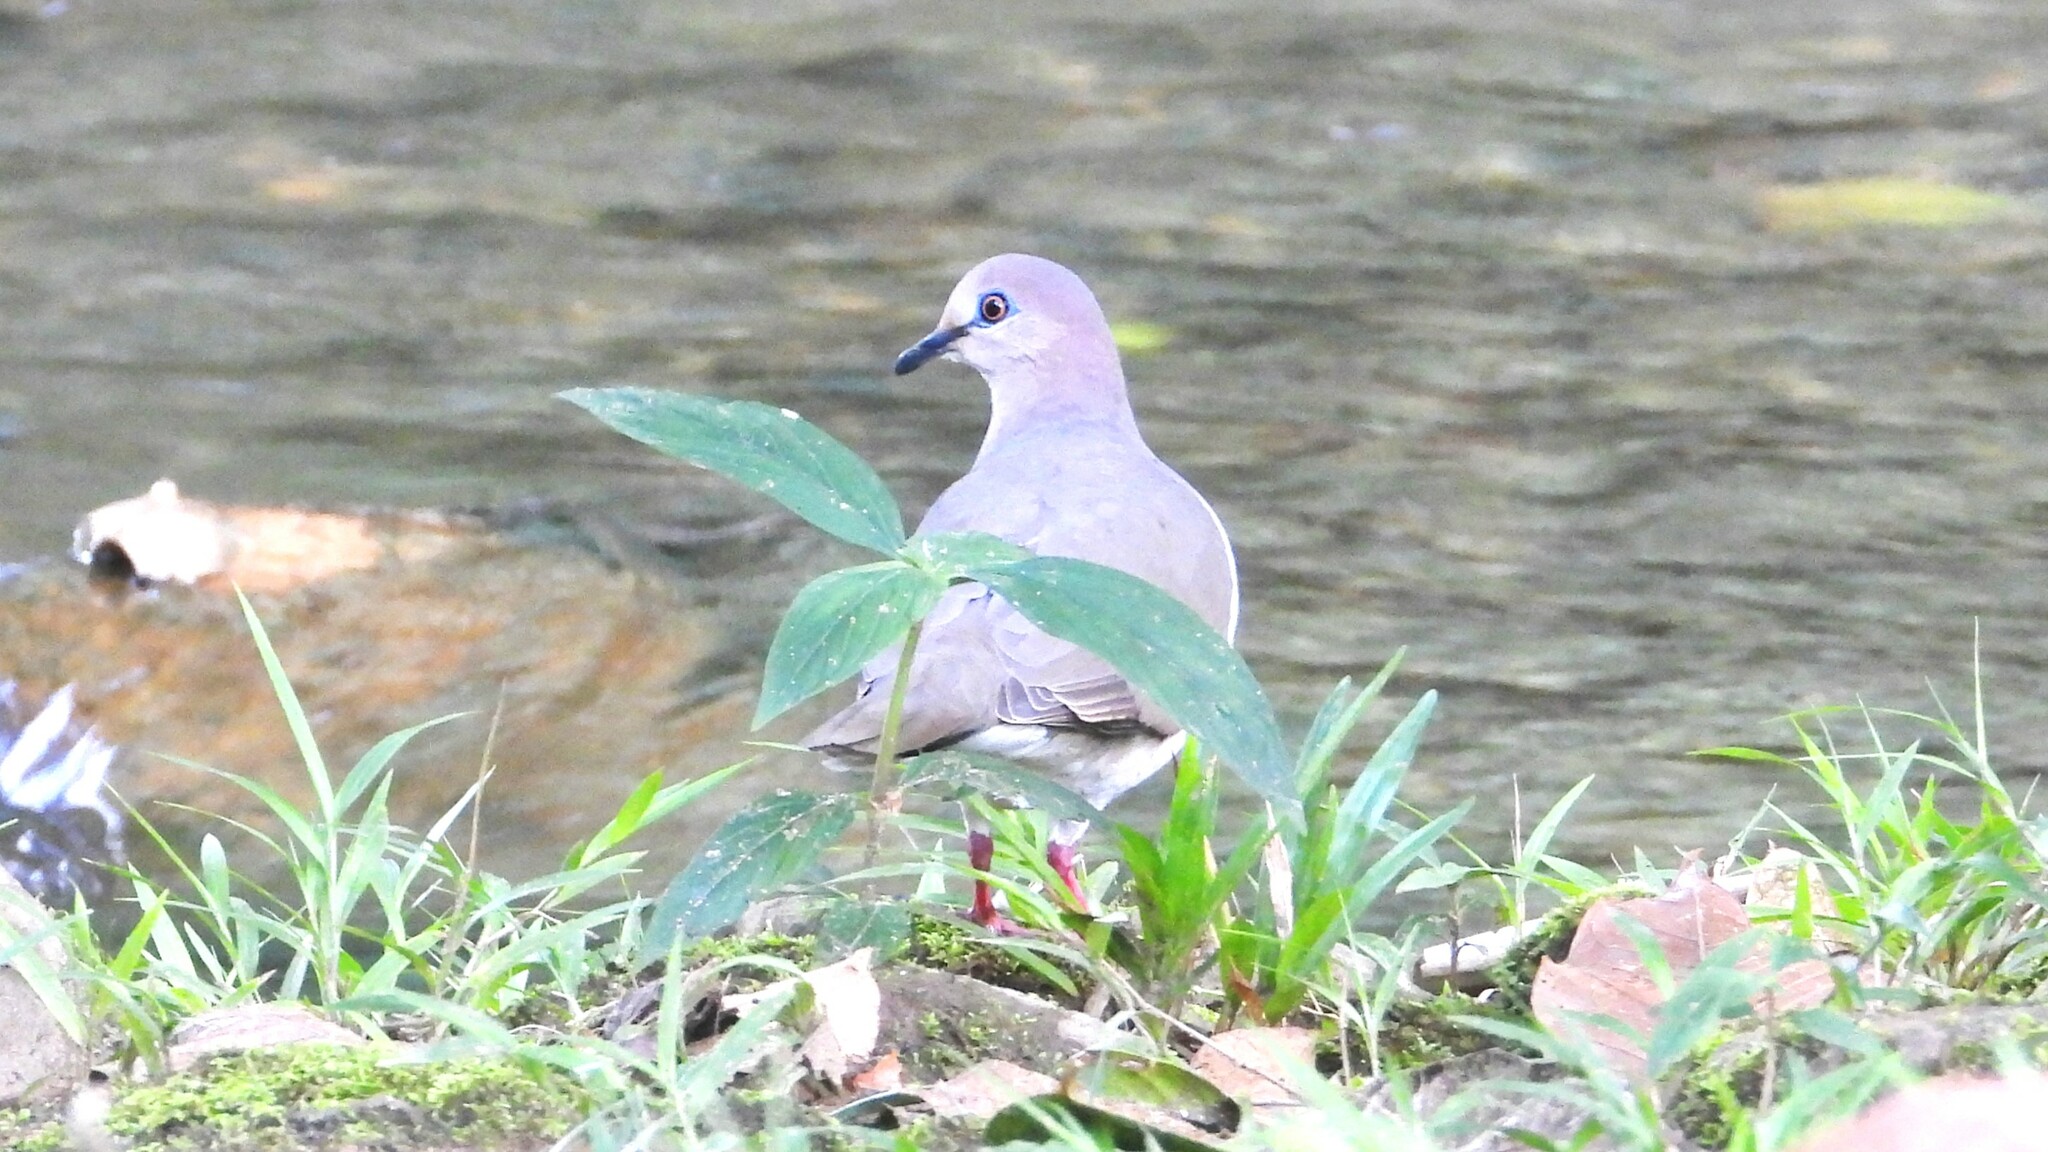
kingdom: Animalia
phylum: Chordata
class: Aves
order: Columbiformes
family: Columbidae
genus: Leptotila
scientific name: Leptotila verreauxi
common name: White-tipped dove
